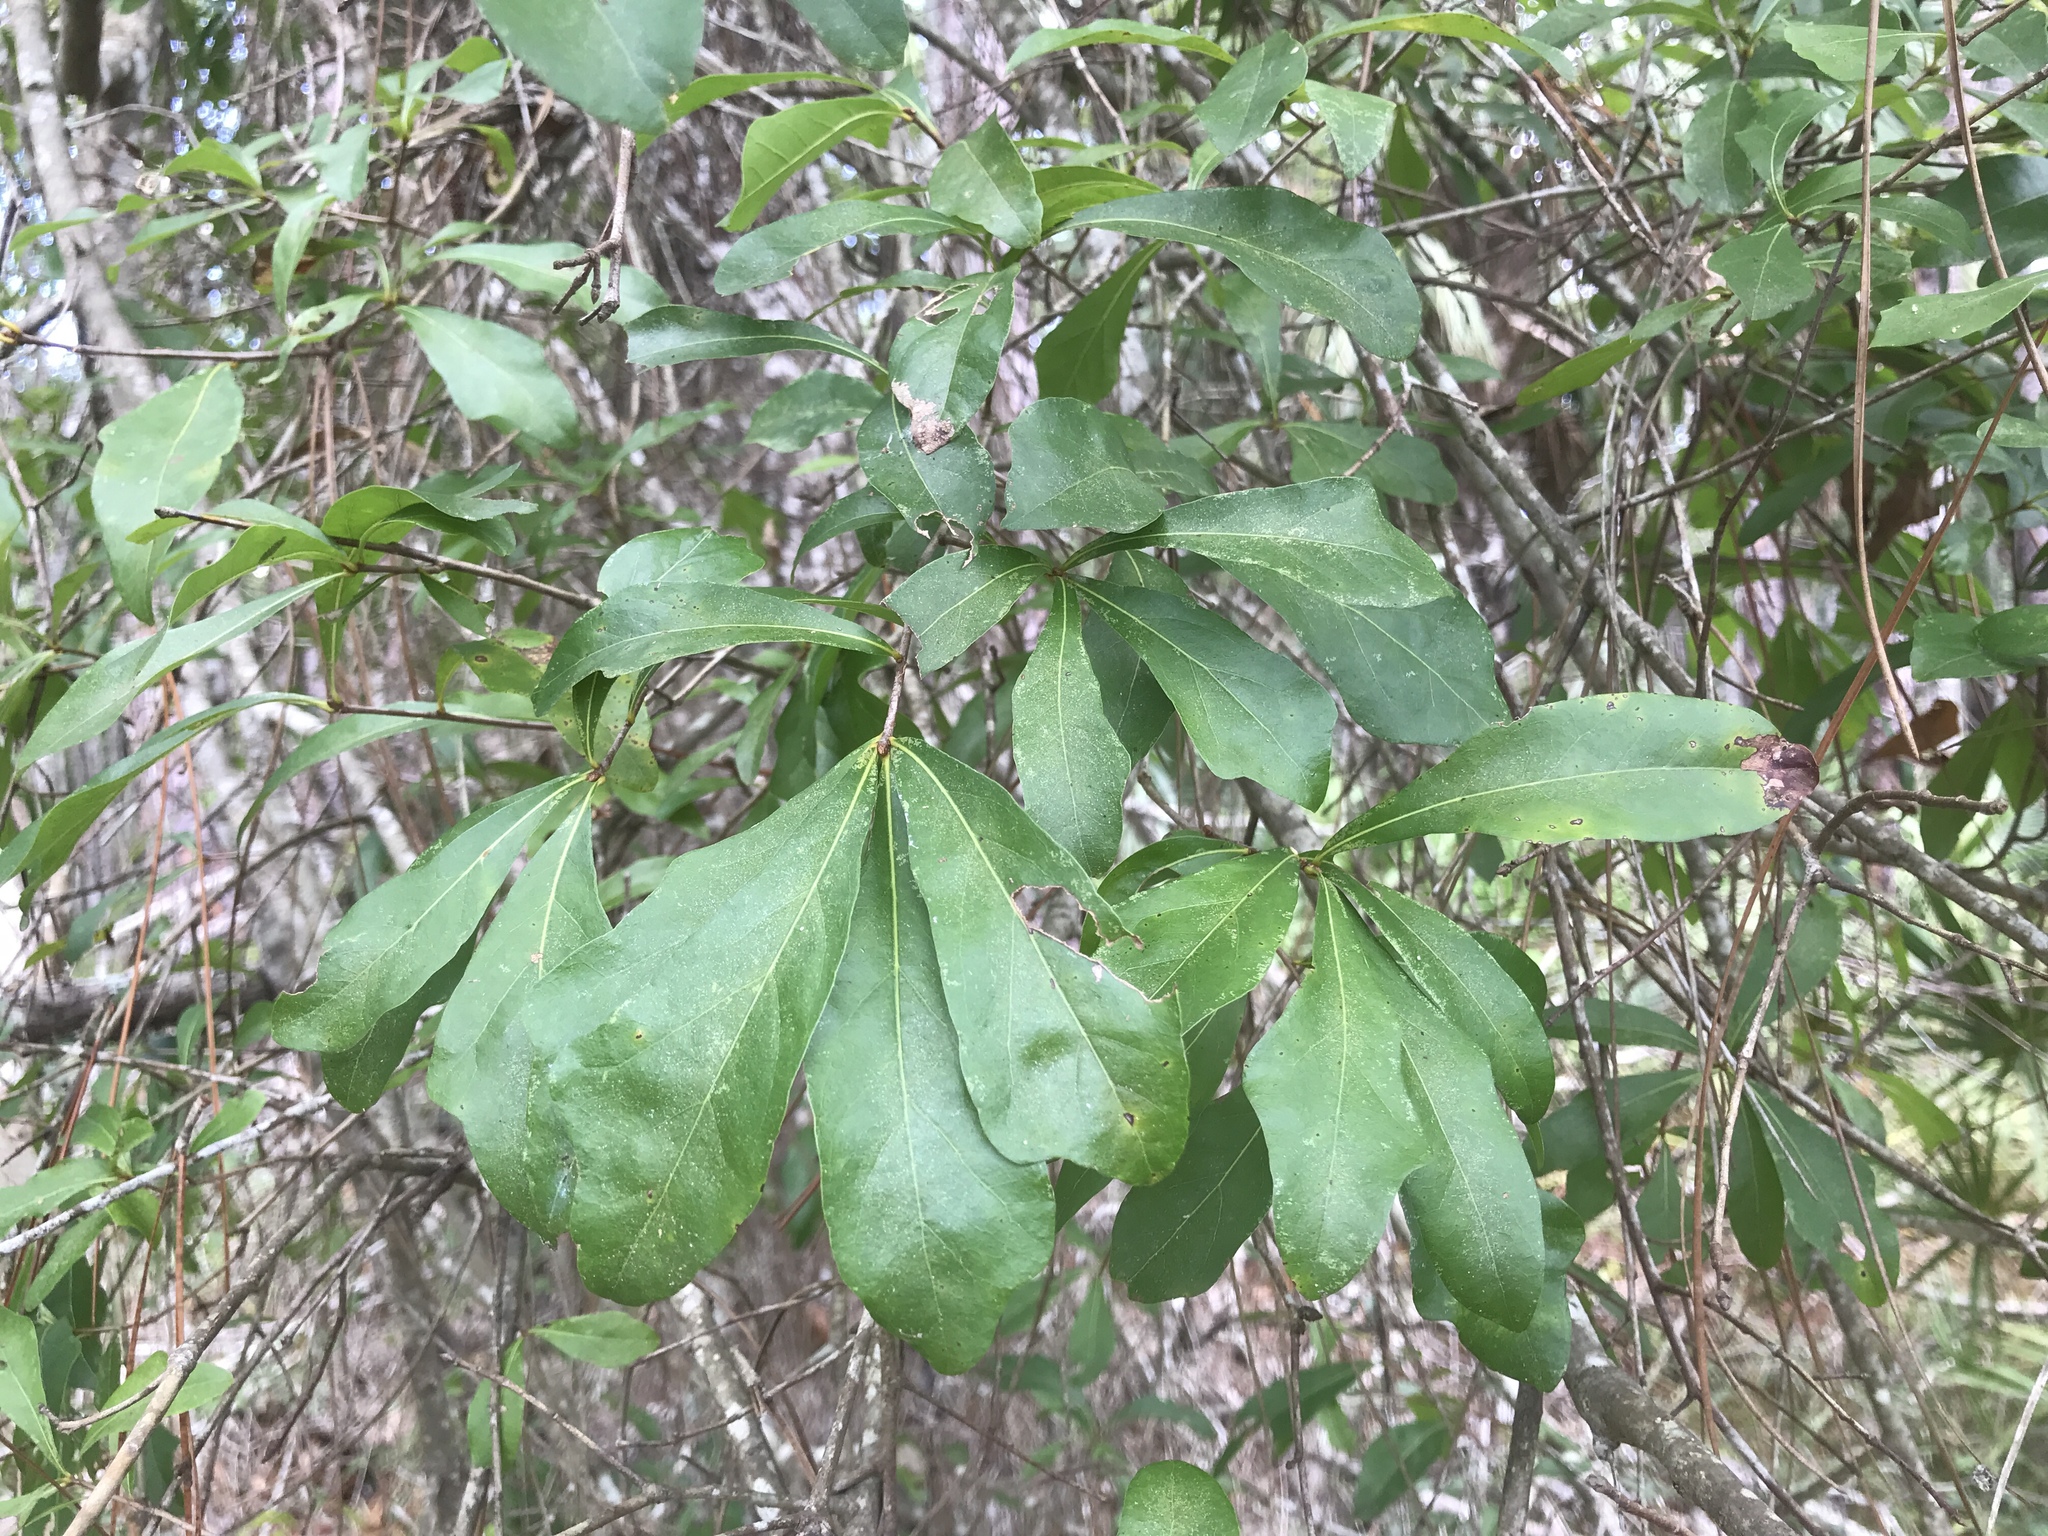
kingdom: Plantae
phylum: Tracheophyta
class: Magnoliopsida
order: Fagales
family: Fagaceae
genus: Quercus
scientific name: Quercus nigra
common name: Water oak
